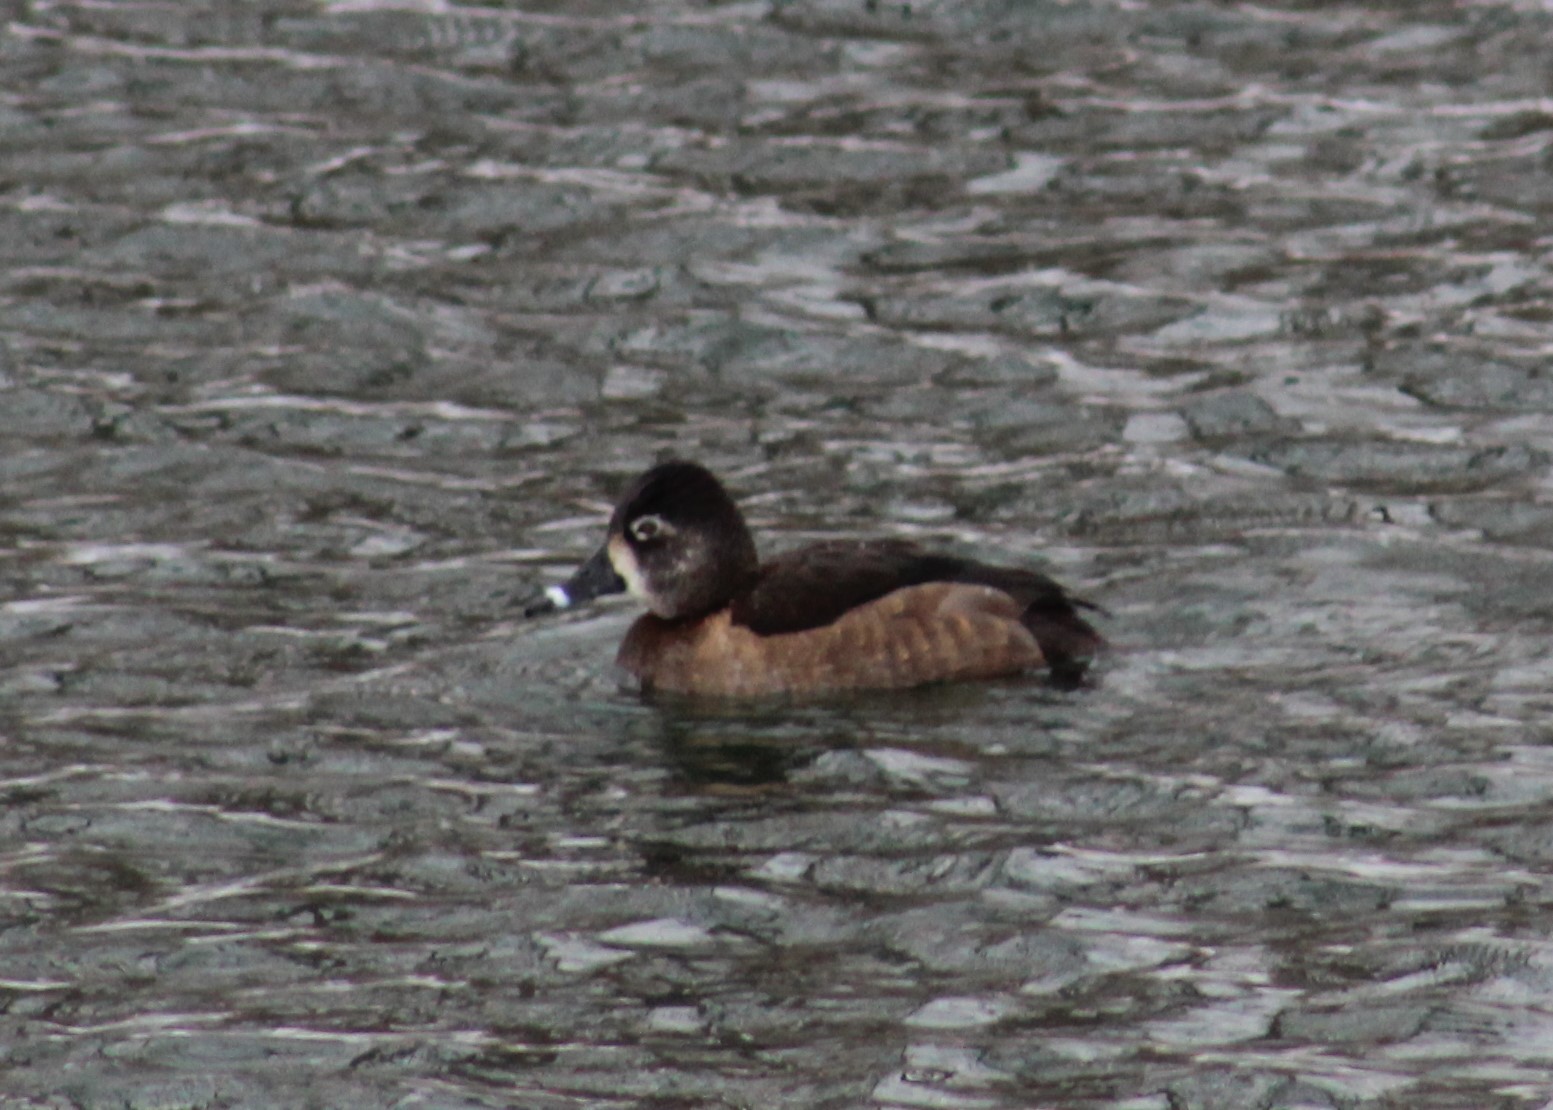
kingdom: Animalia
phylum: Chordata
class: Aves
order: Anseriformes
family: Anatidae
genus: Aythya
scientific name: Aythya collaris
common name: Ring-necked duck
